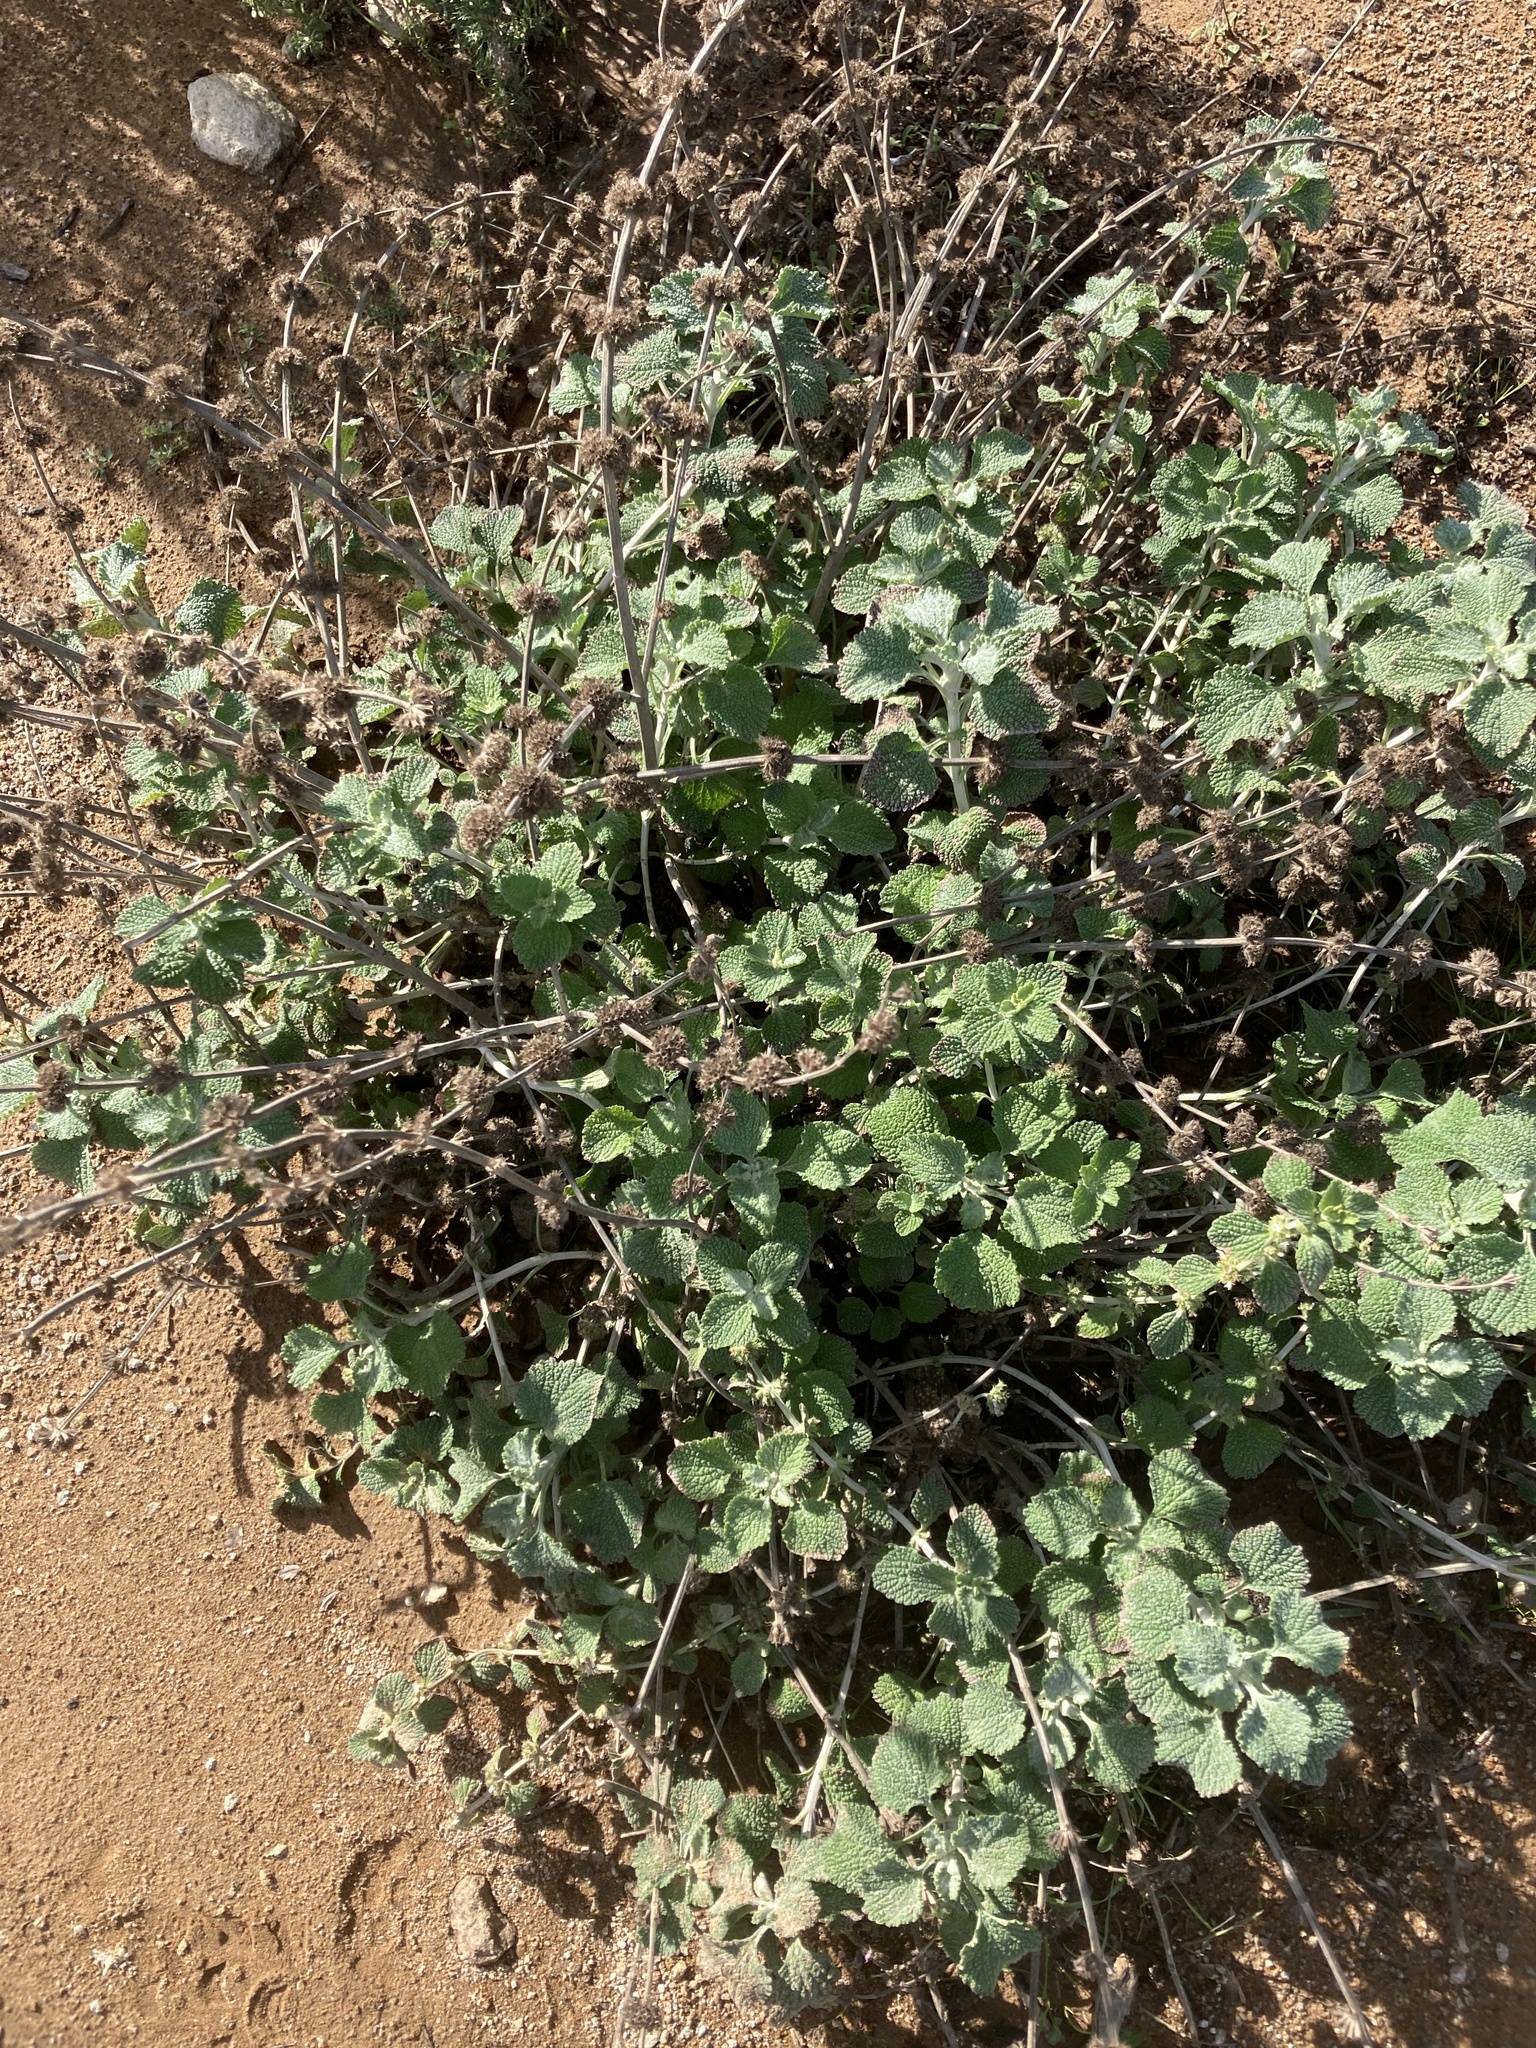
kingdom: Plantae
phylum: Tracheophyta
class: Magnoliopsida
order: Lamiales
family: Lamiaceae
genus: Marrubium
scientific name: Marrubium vulgare
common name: Horehound
